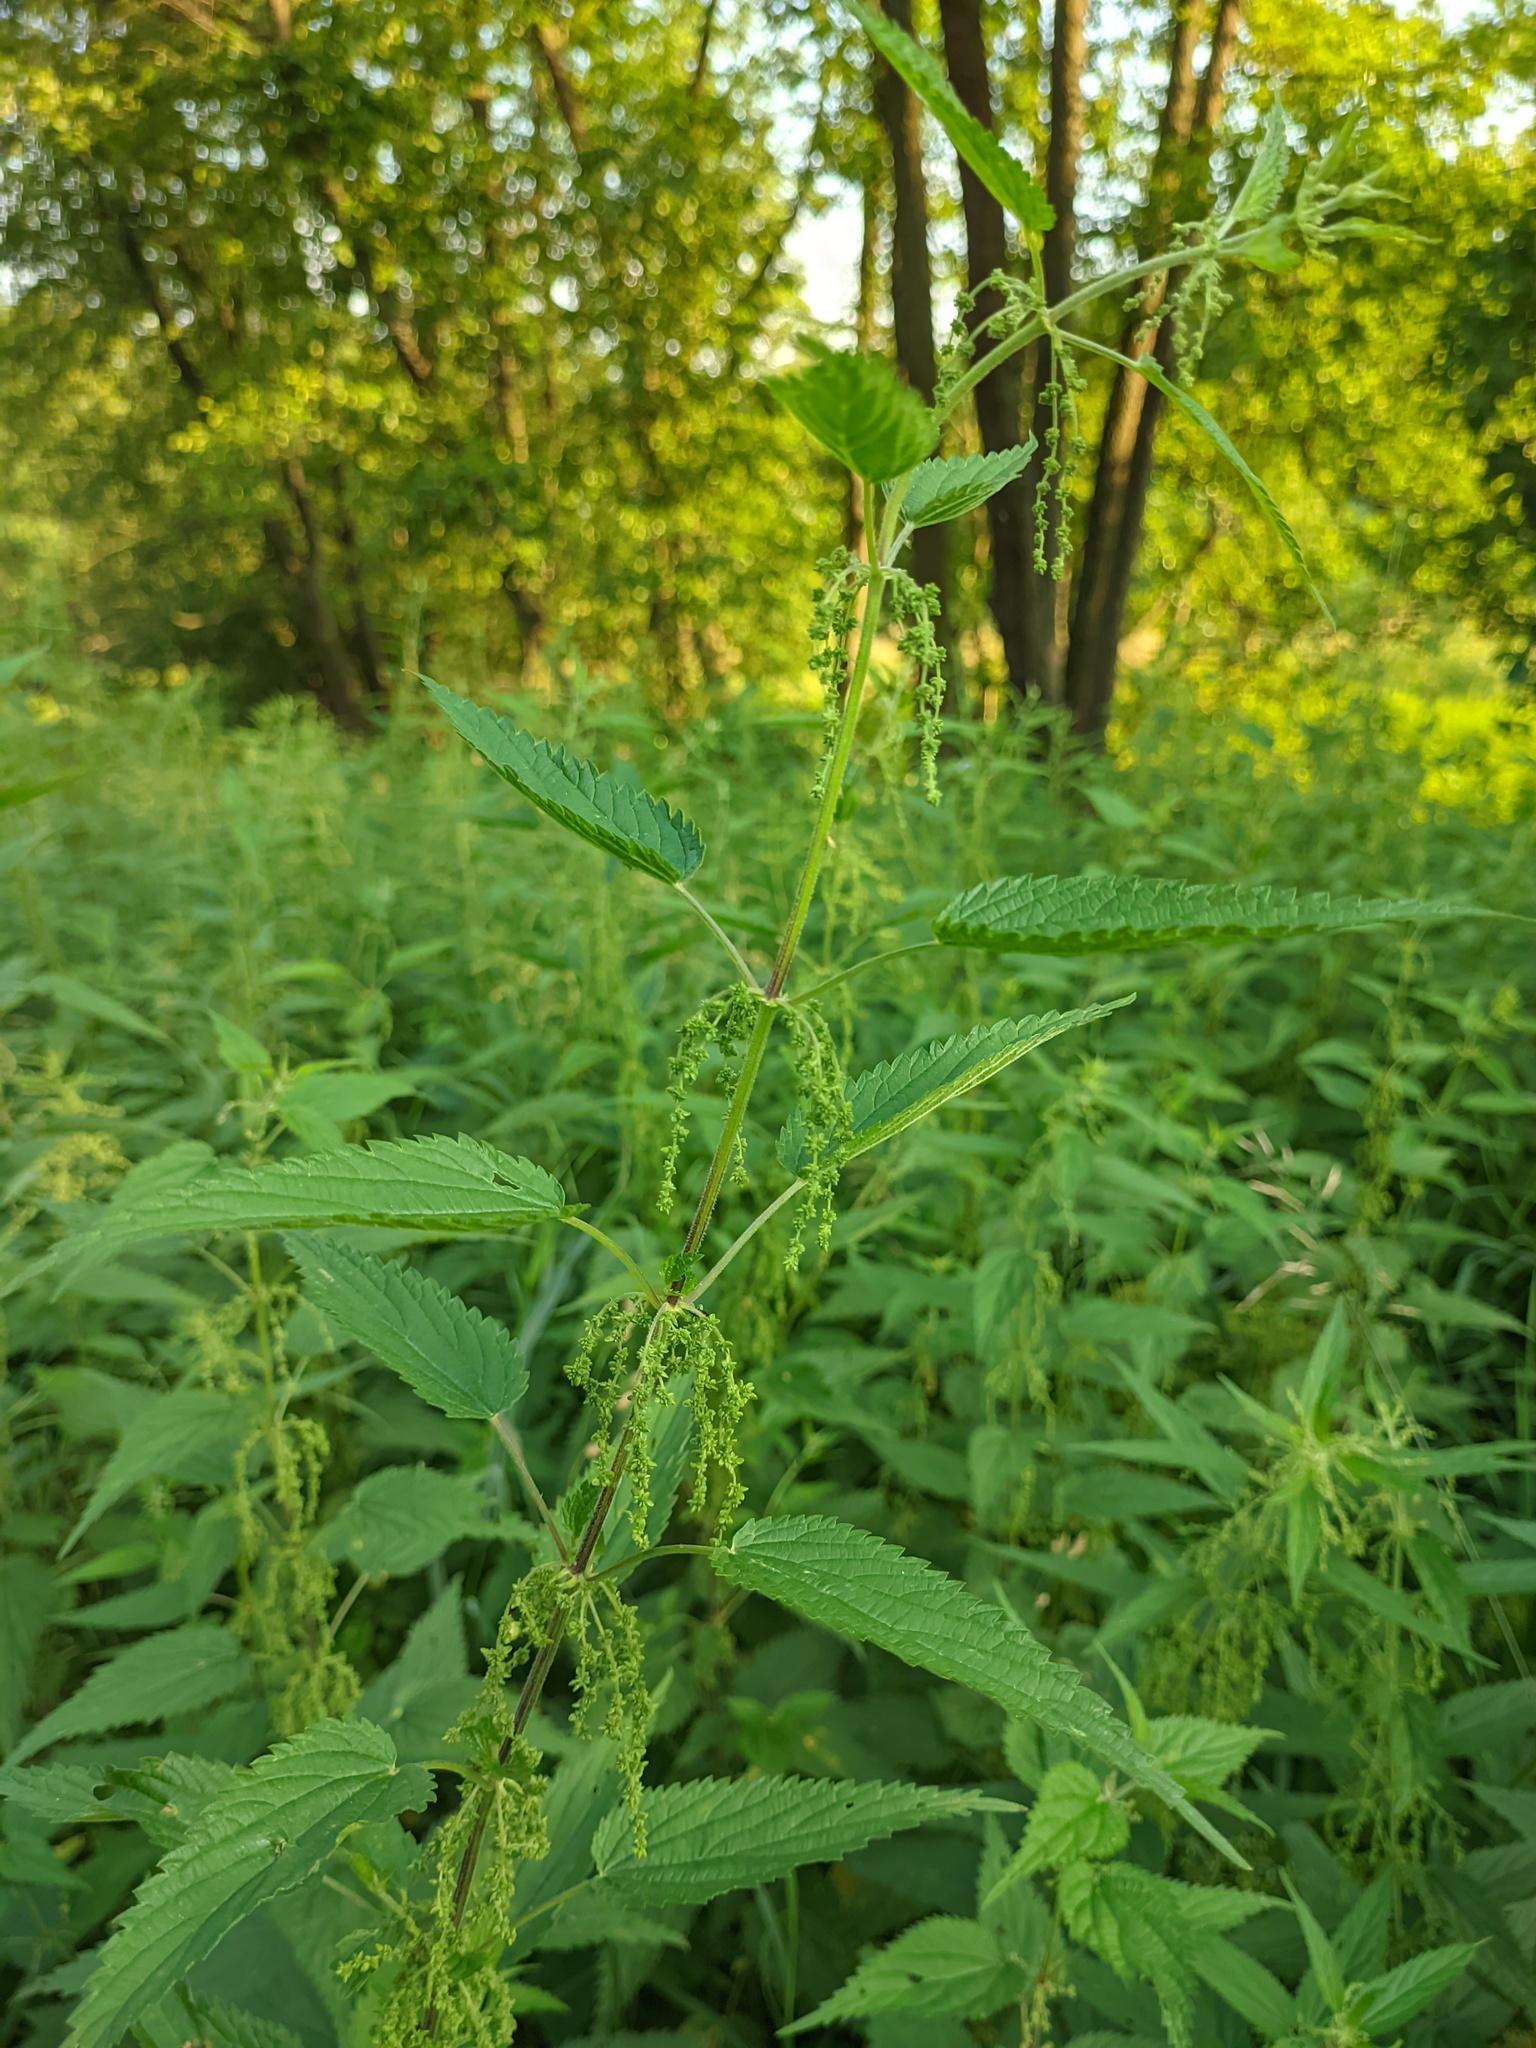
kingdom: Plantae
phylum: Tracheophyta
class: Magnoliopsida
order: Rosales
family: Urticaceae
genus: Urtica
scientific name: Urtica dioica
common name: Common nettle
